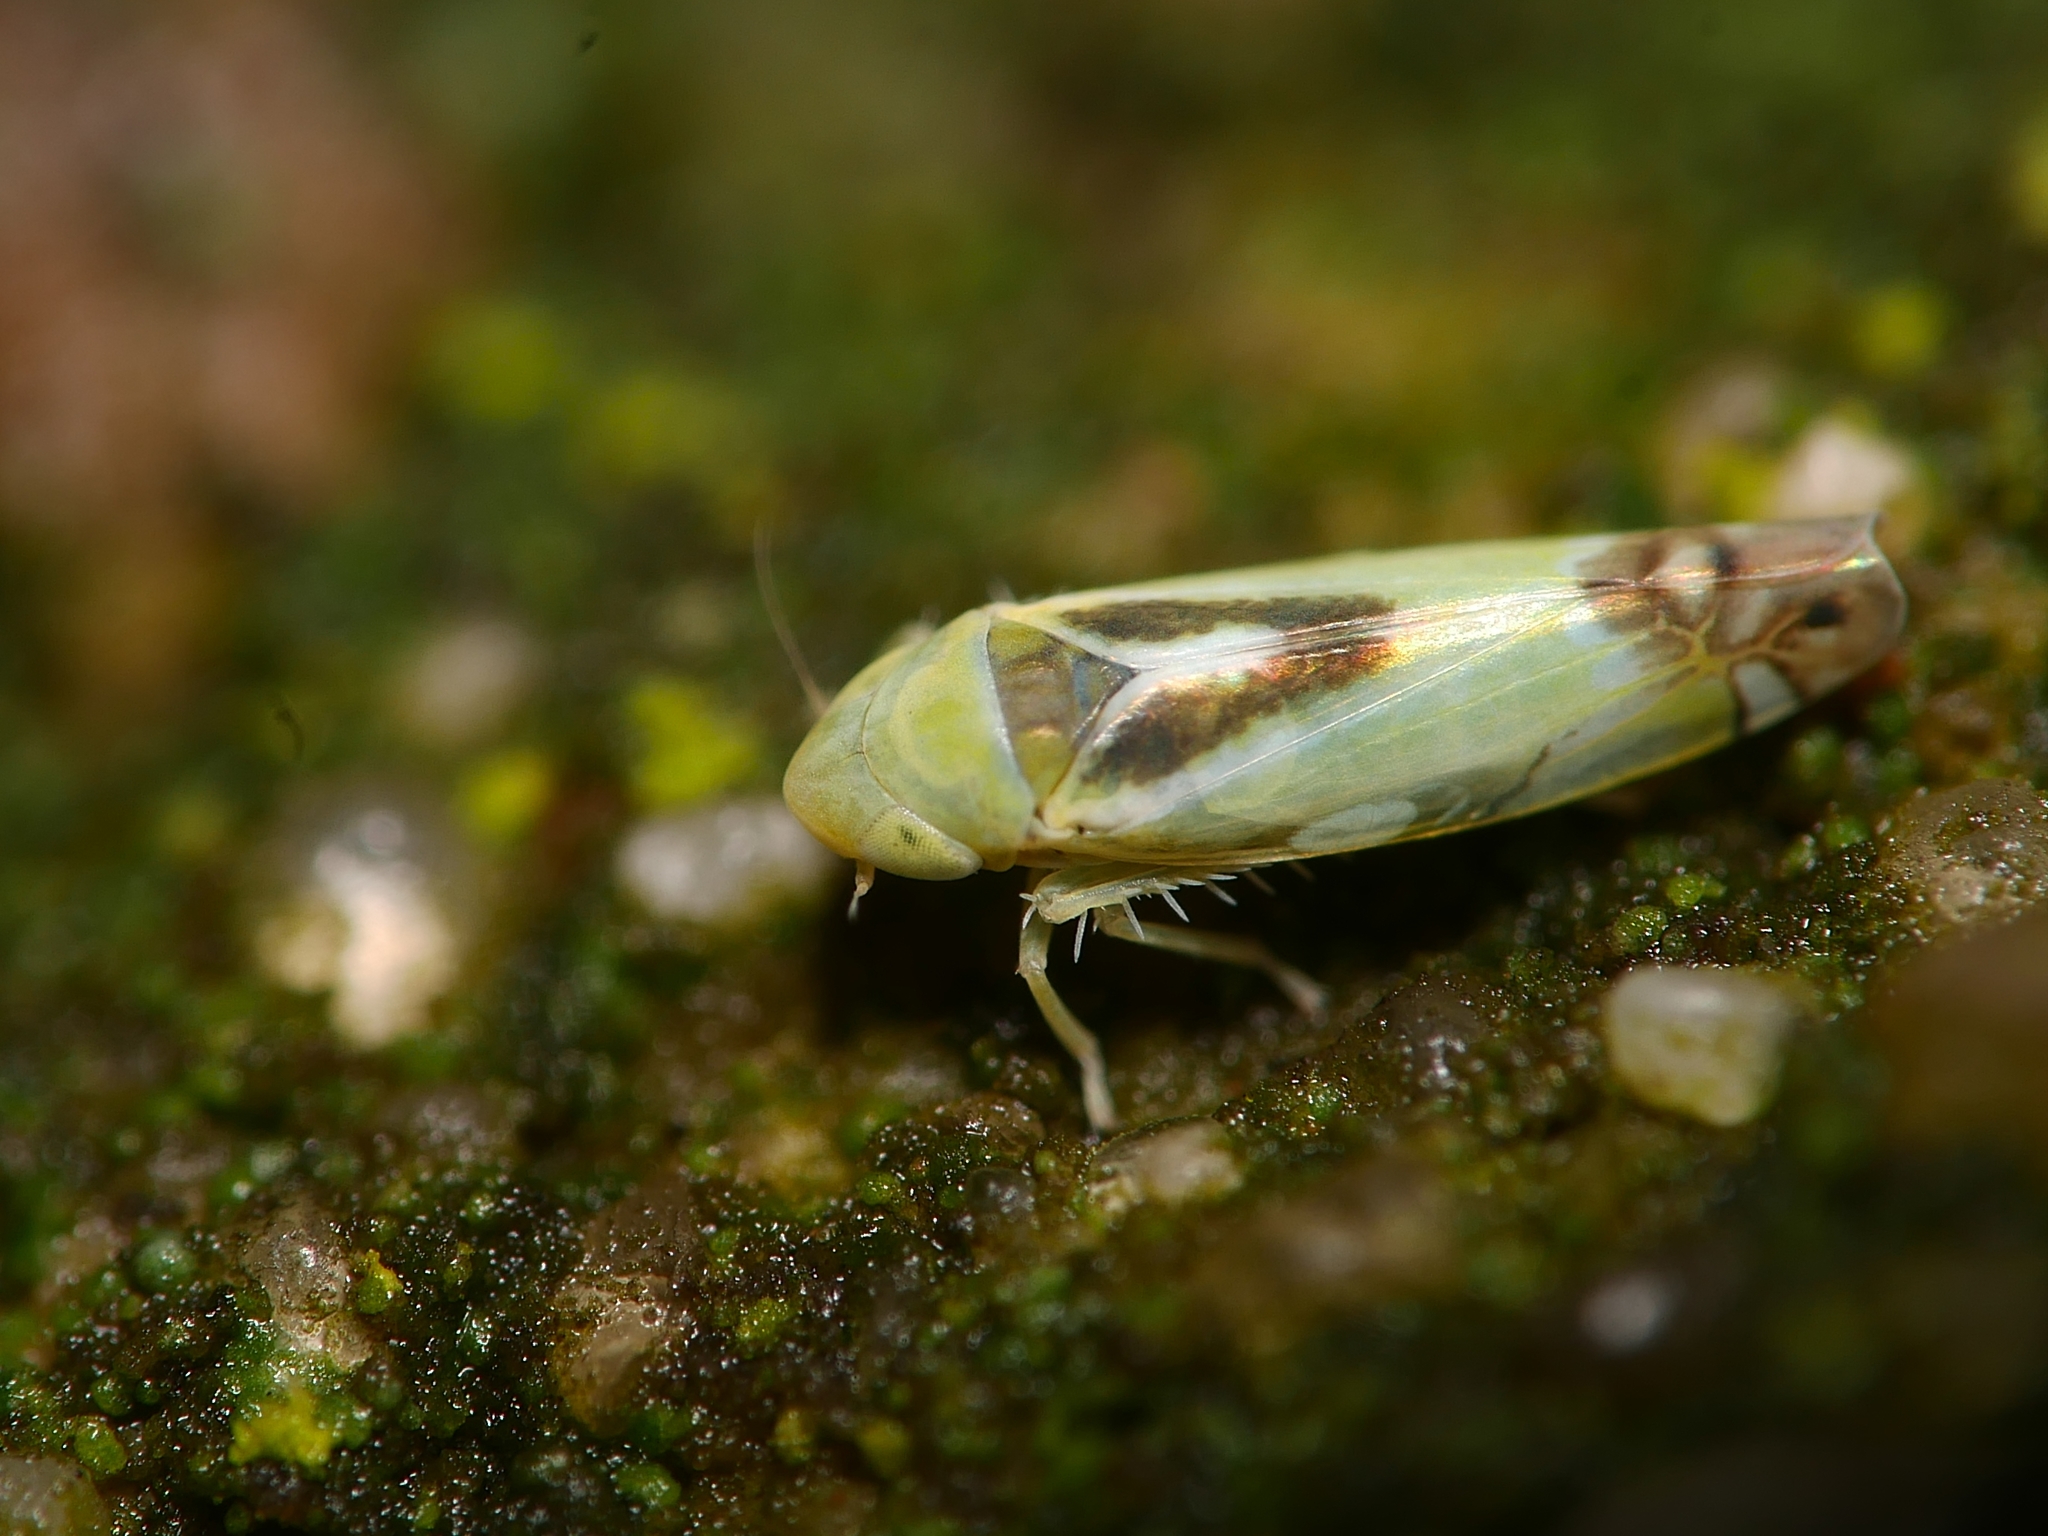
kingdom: Animalia
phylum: Arthropoda
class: Insecta
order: Hemiptera
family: Cicadellidae
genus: Zyginella
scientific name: Zyginella pulchra
